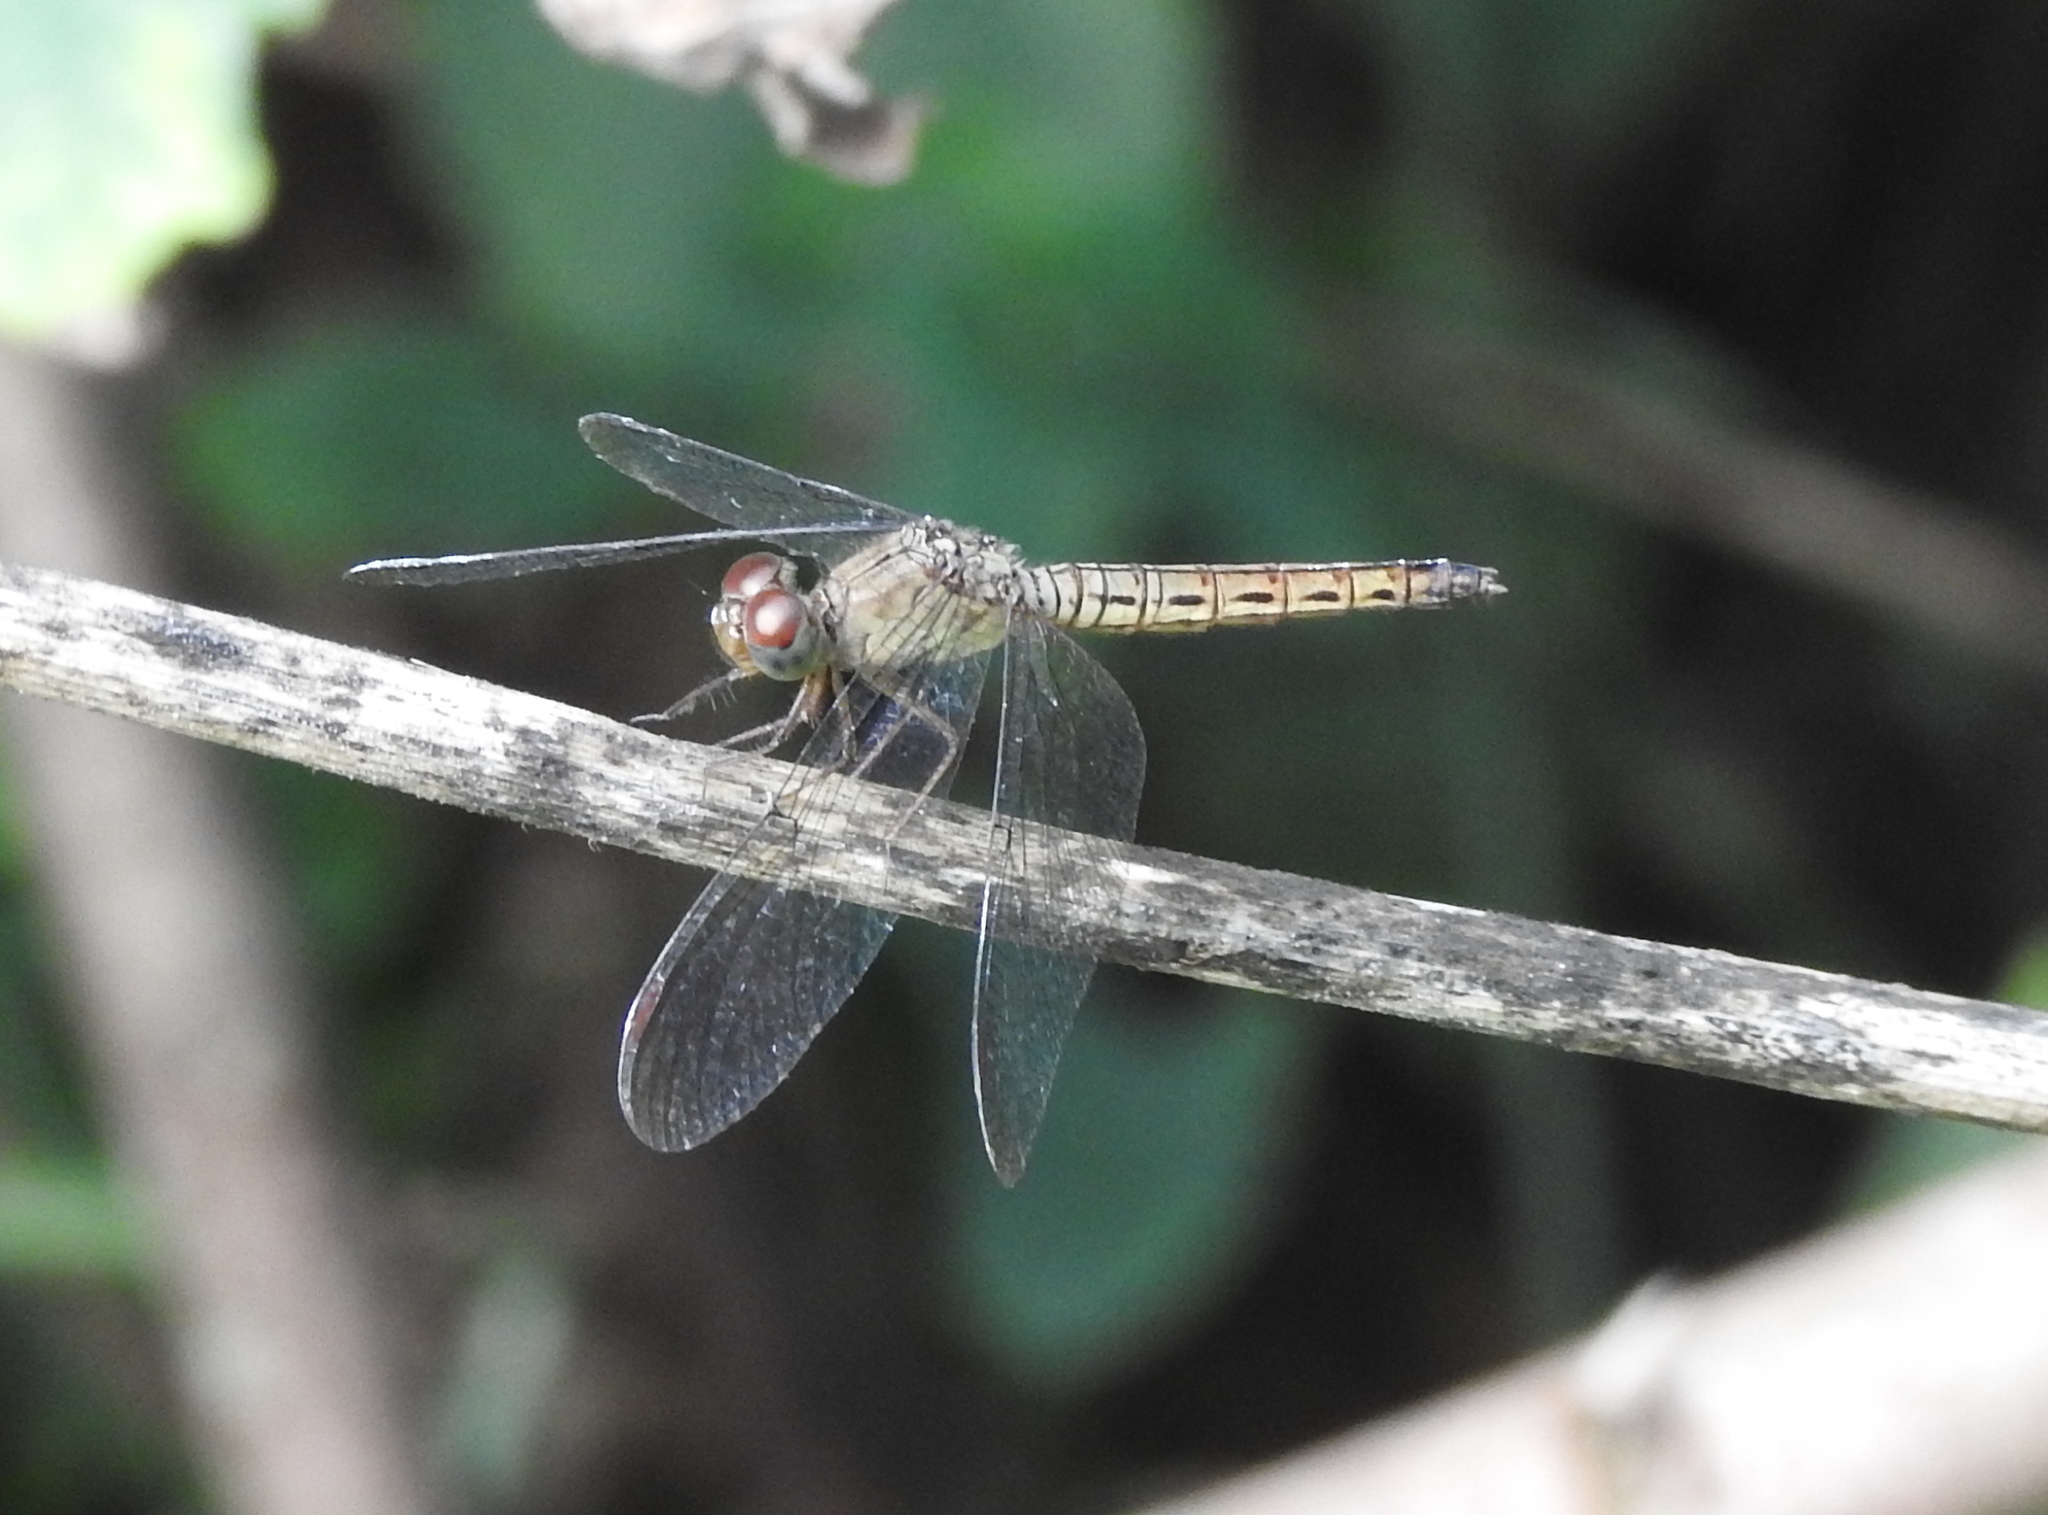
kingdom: Animalia
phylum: Arthropoda
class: Insecta
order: Odonata
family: Libellulidae
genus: Neurothemis
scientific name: Neurothemis fluctuans
